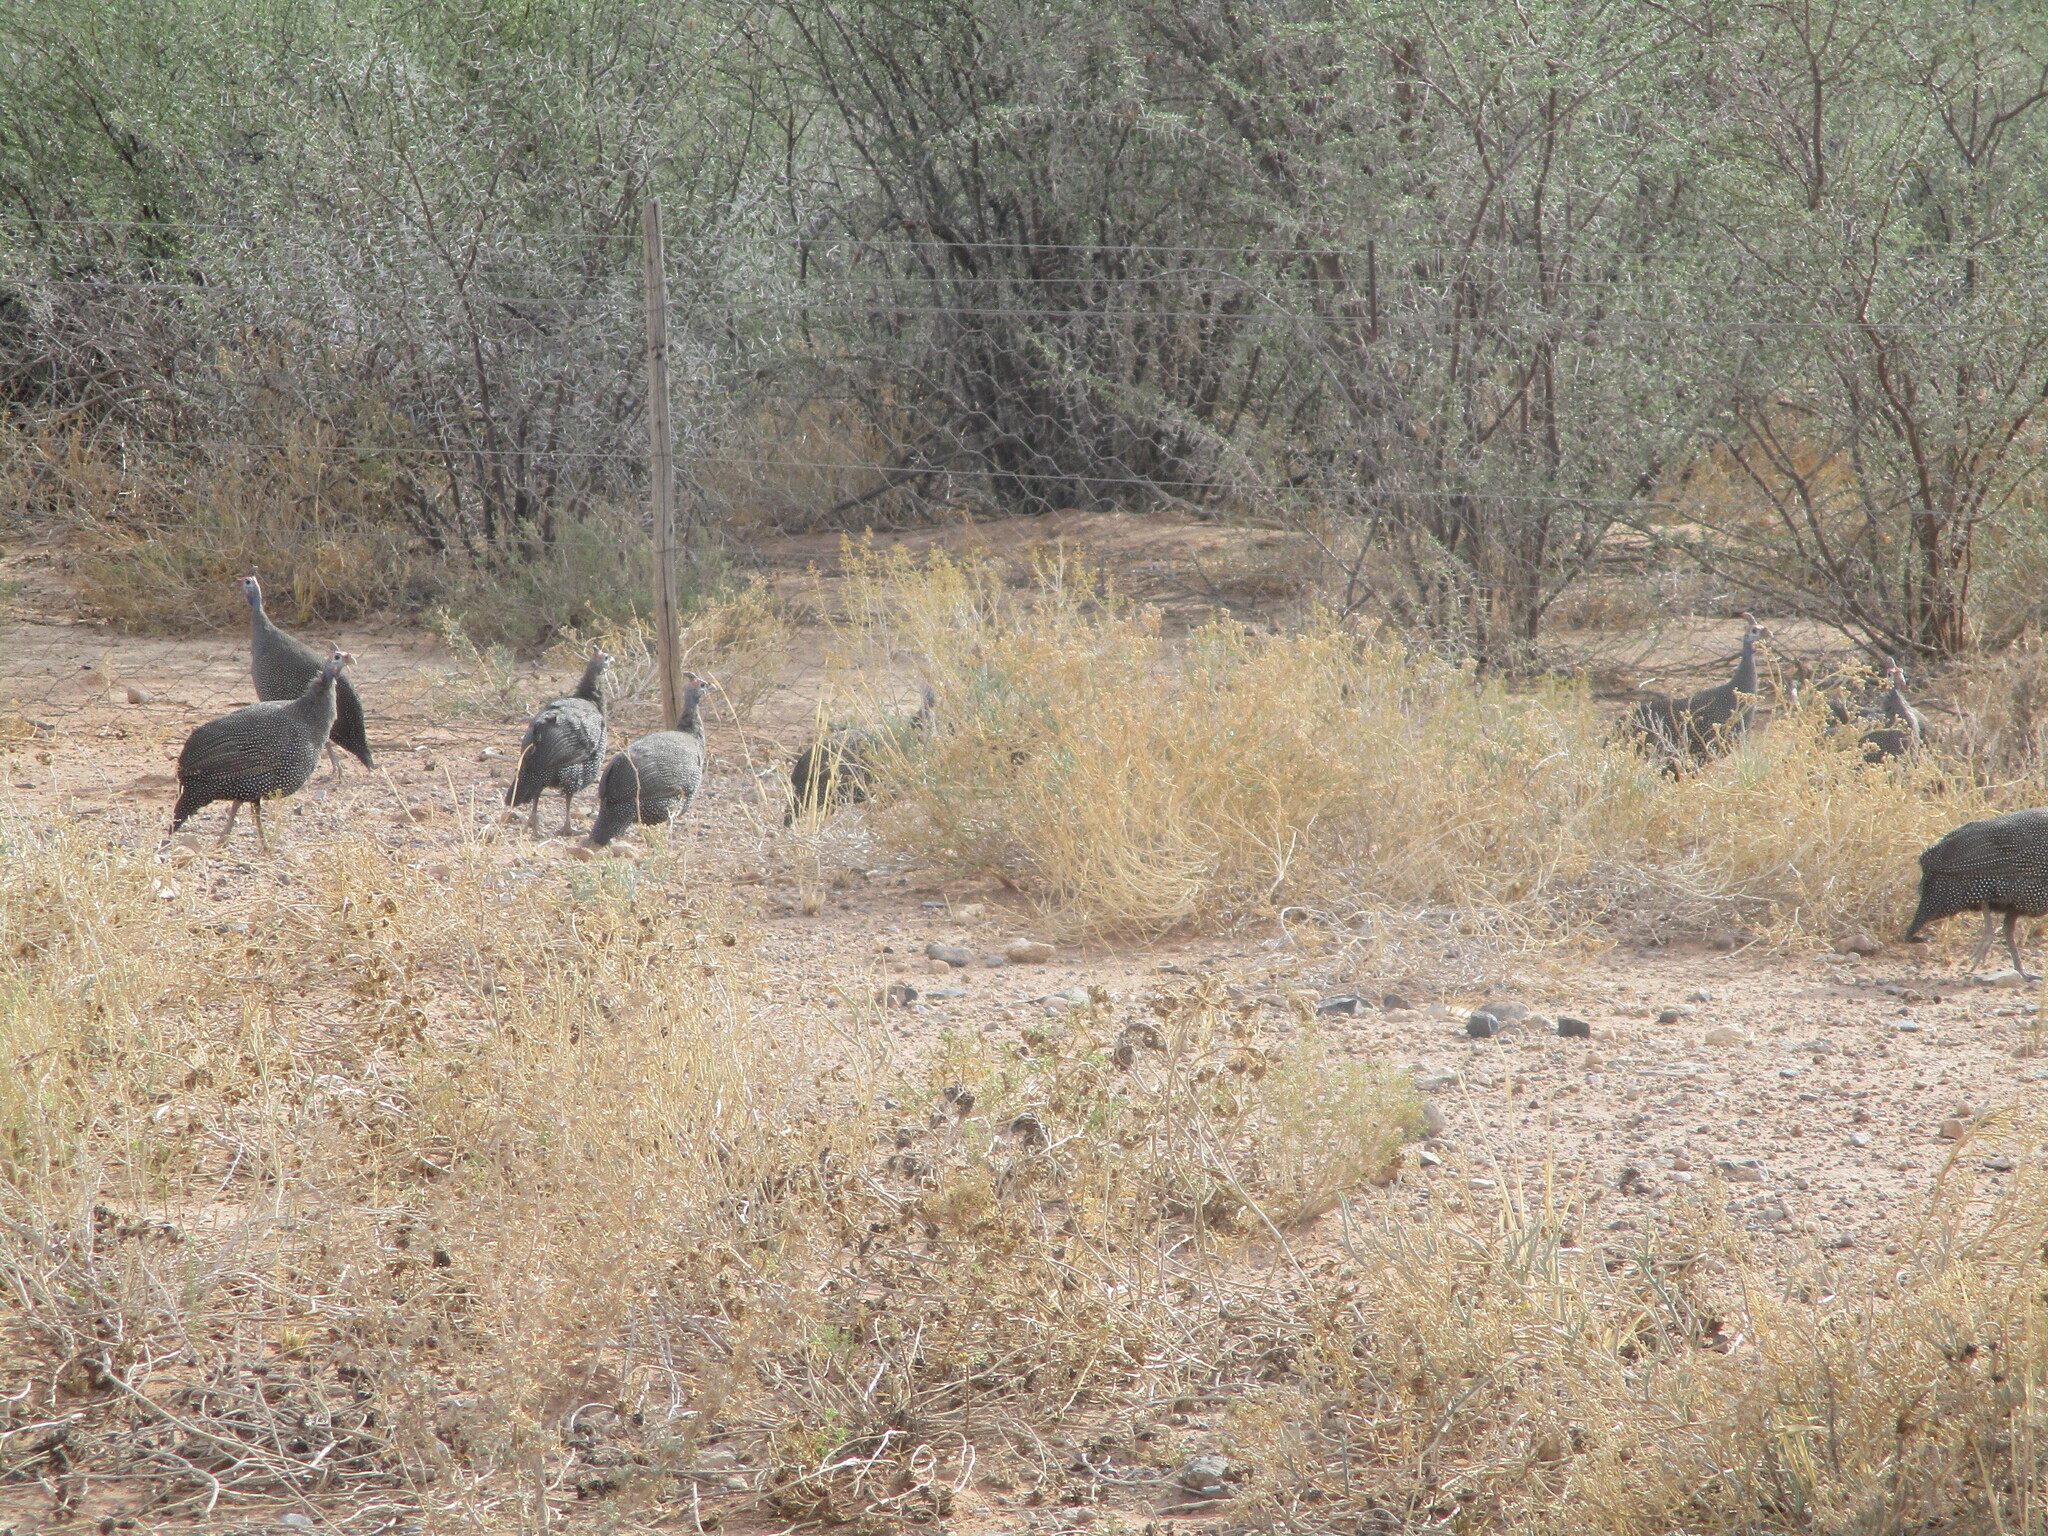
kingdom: Animalia
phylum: Chordata
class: Aves
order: Galliformes
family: Numididae
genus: Numida
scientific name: Numida meleagris
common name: Helmeted guineafowl
